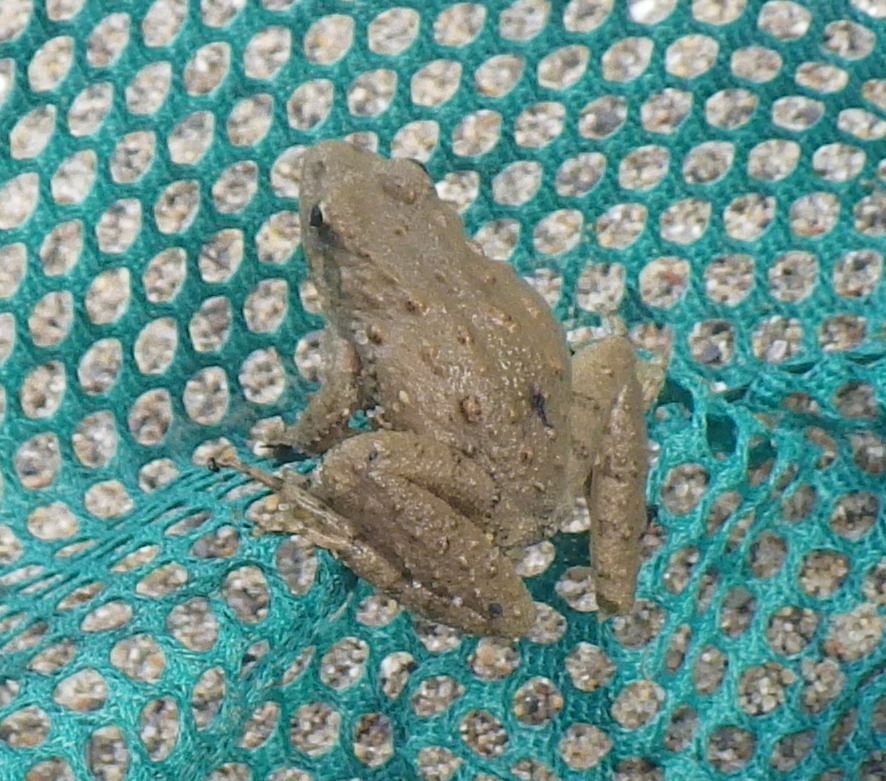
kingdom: Animalia
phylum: Chordata
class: Amphibia
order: Anura
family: Hylidae
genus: Acris
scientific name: Acris blanchardi
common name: Blanchard's cricket frog
